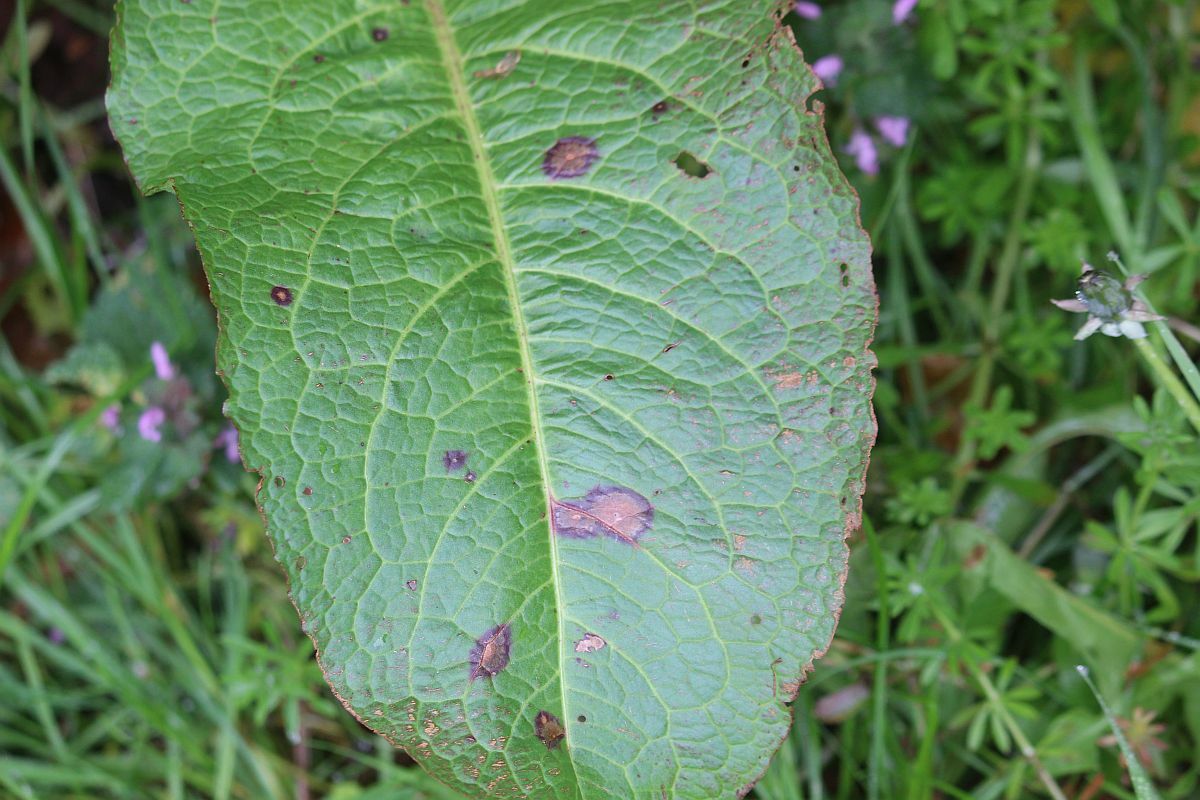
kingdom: Fungi
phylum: Ascomycota
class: Dothideomycetes
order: Mycosphaerellales
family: Mycosphaerellaceae
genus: Ramularia
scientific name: Ramularia rubella
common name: Red dock spot
